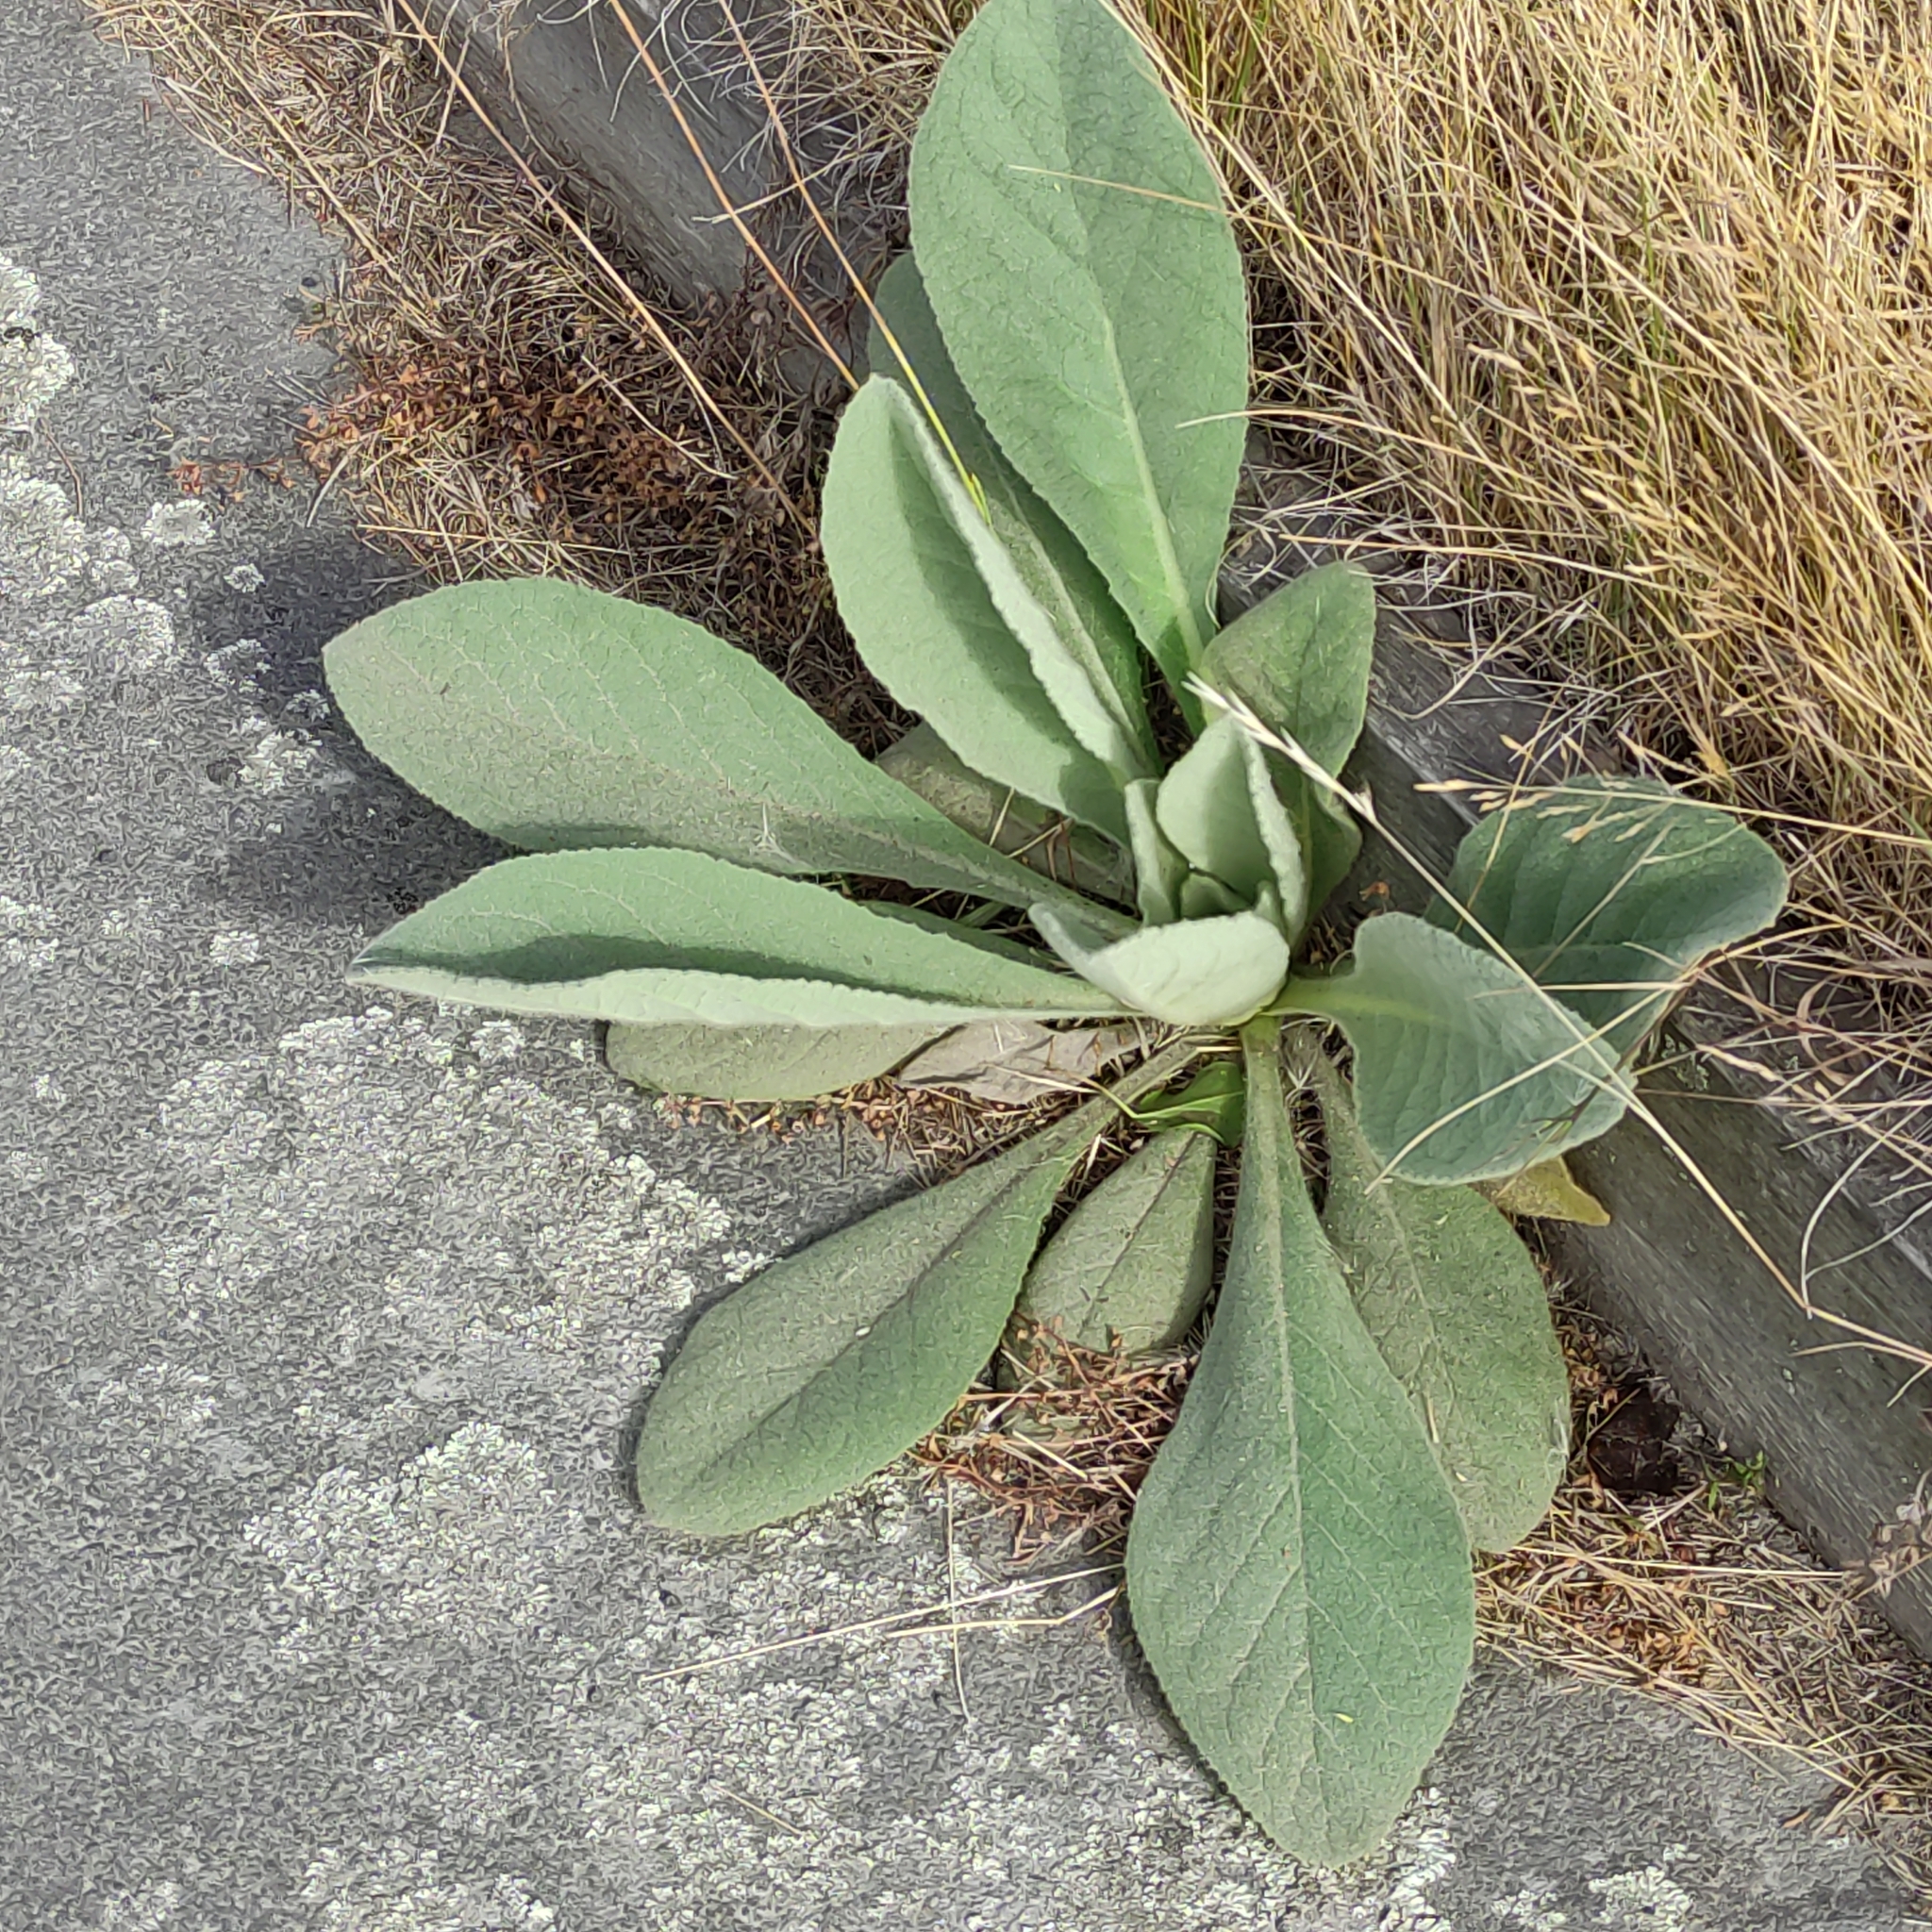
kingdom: Plantae
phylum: Tracheophyta
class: Magnoliopsida
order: Lamiales
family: Scrophulariaceae
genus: Verbascum
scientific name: Verbascum thapsus
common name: Common mullein
